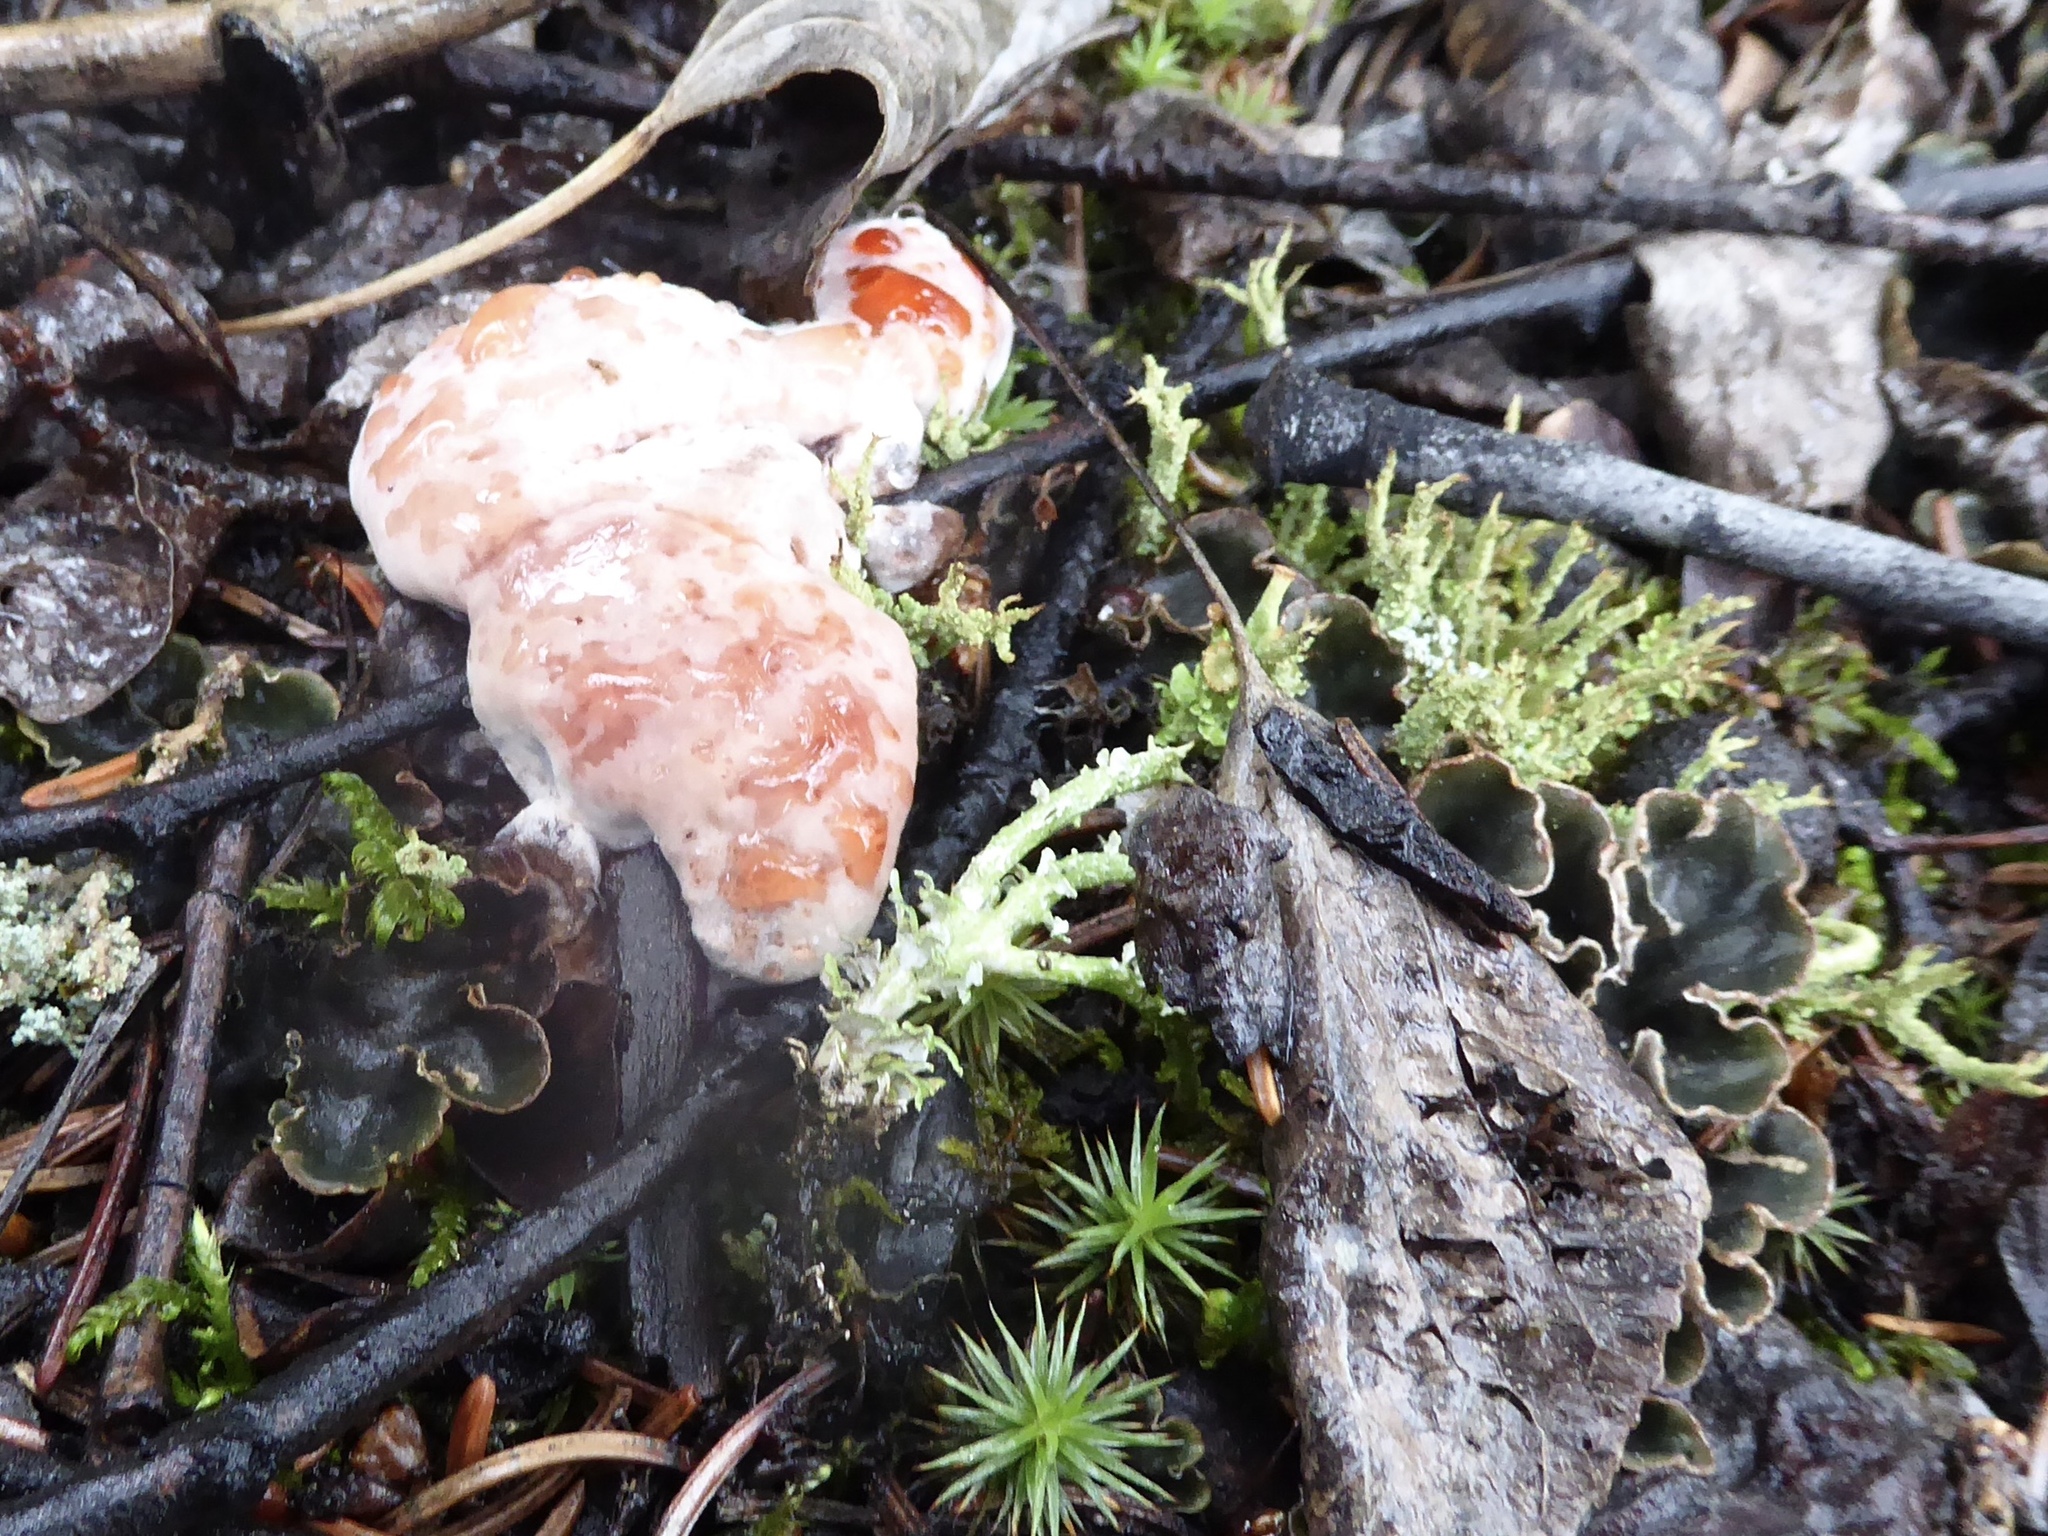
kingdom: Fungi
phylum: Basidiomycota
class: Agaricomycetes
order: Thelephorales
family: Bankeraceae
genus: Hydnellum
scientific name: Hydnellum peckii
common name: Devil's tooth
